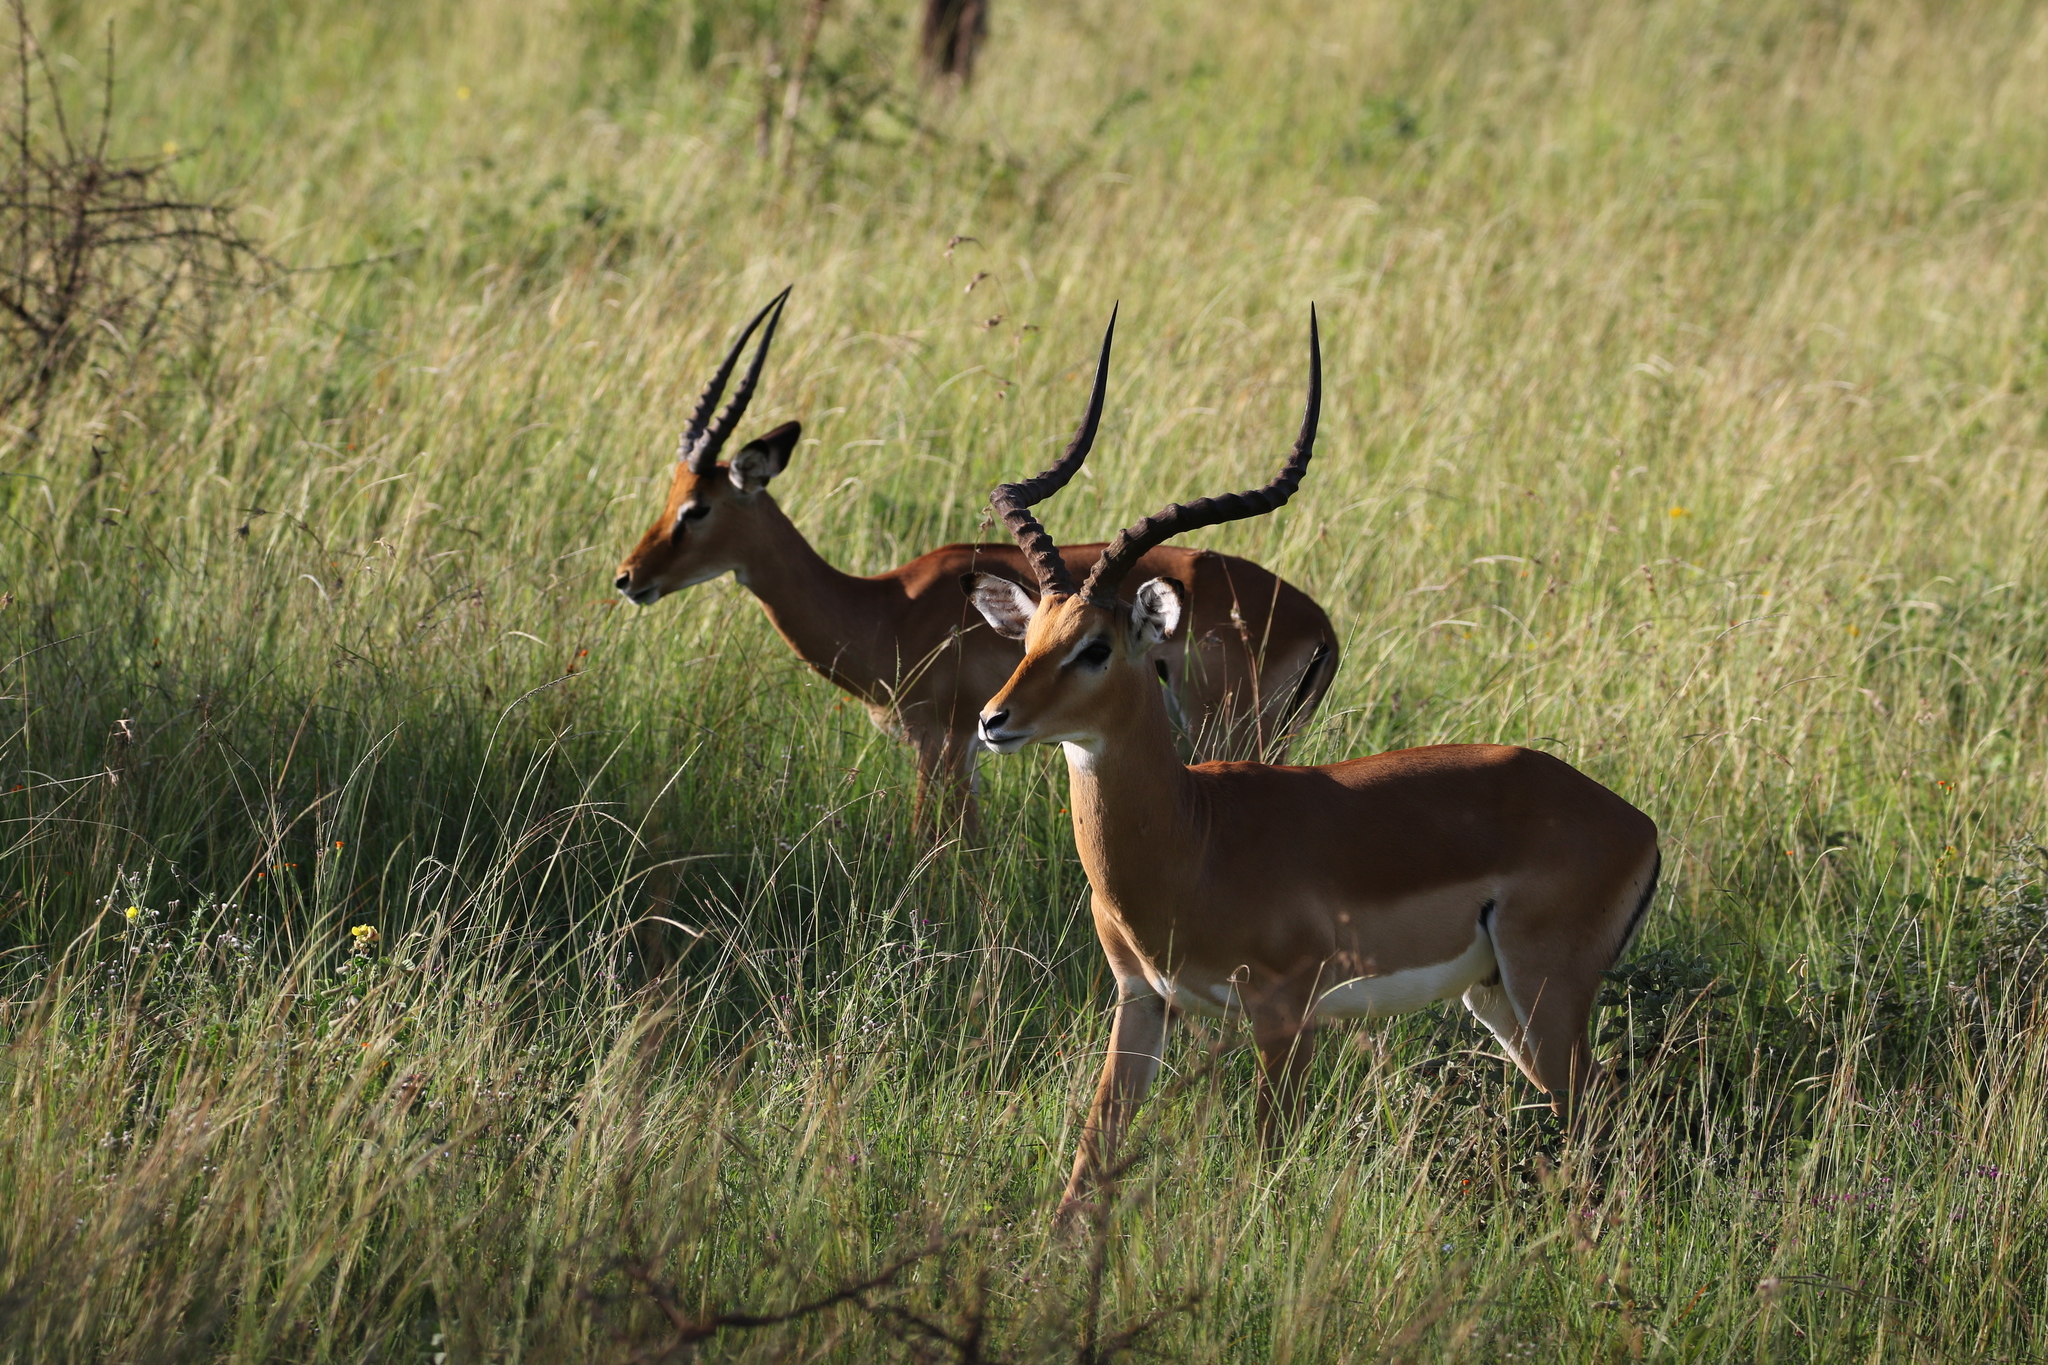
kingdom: Animalia
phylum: Chordata
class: Mammalia
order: Artiodactyla
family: Bovidae
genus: Aepyceros
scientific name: Aepyceros melampus
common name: Impala
